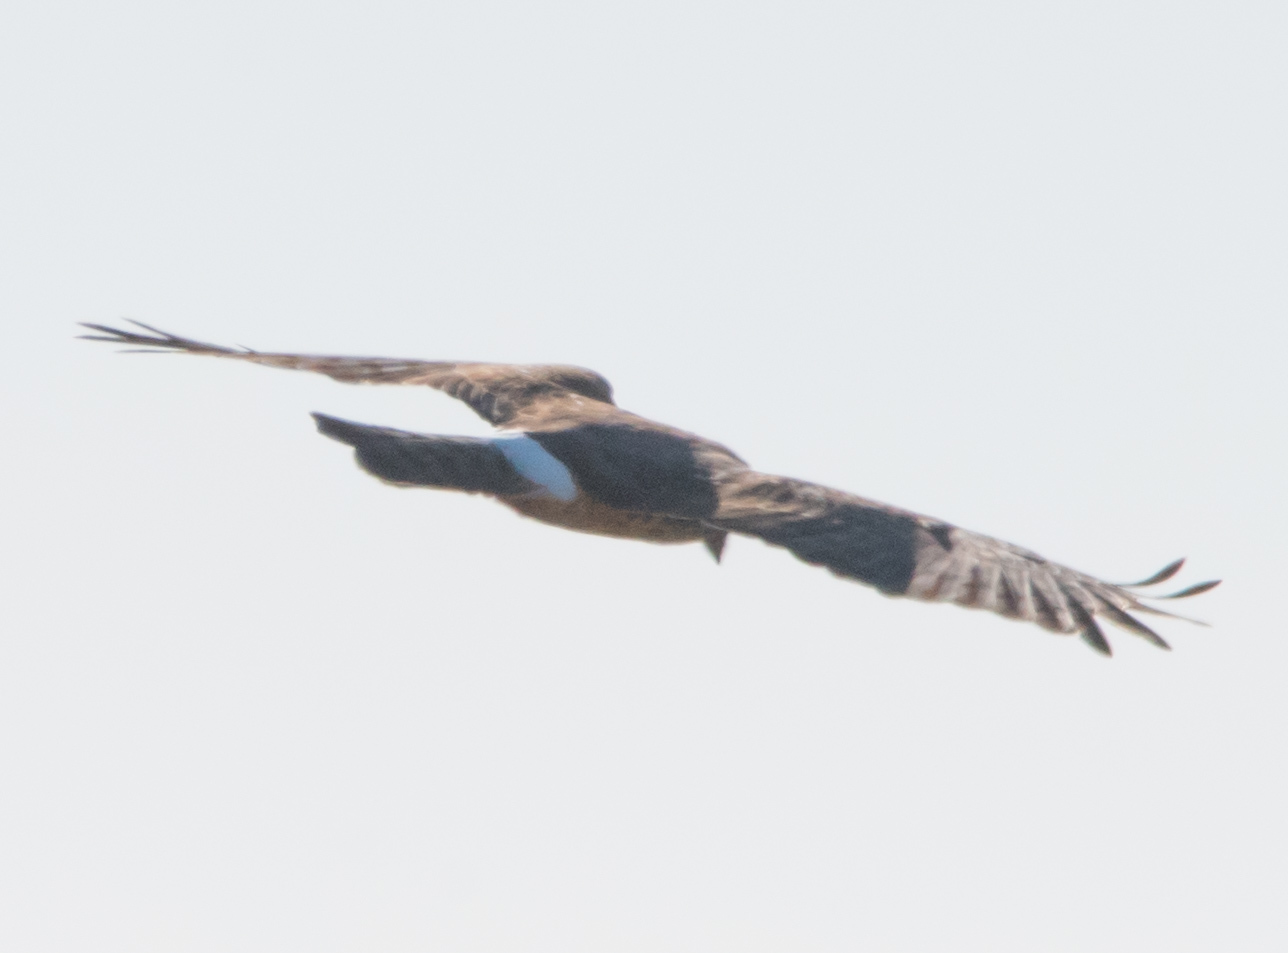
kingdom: Animalia
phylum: Chordata
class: Aves
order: Accipitriformes
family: Accipitridae
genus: Circus
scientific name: Circus cyaneus
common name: Hen harrier
